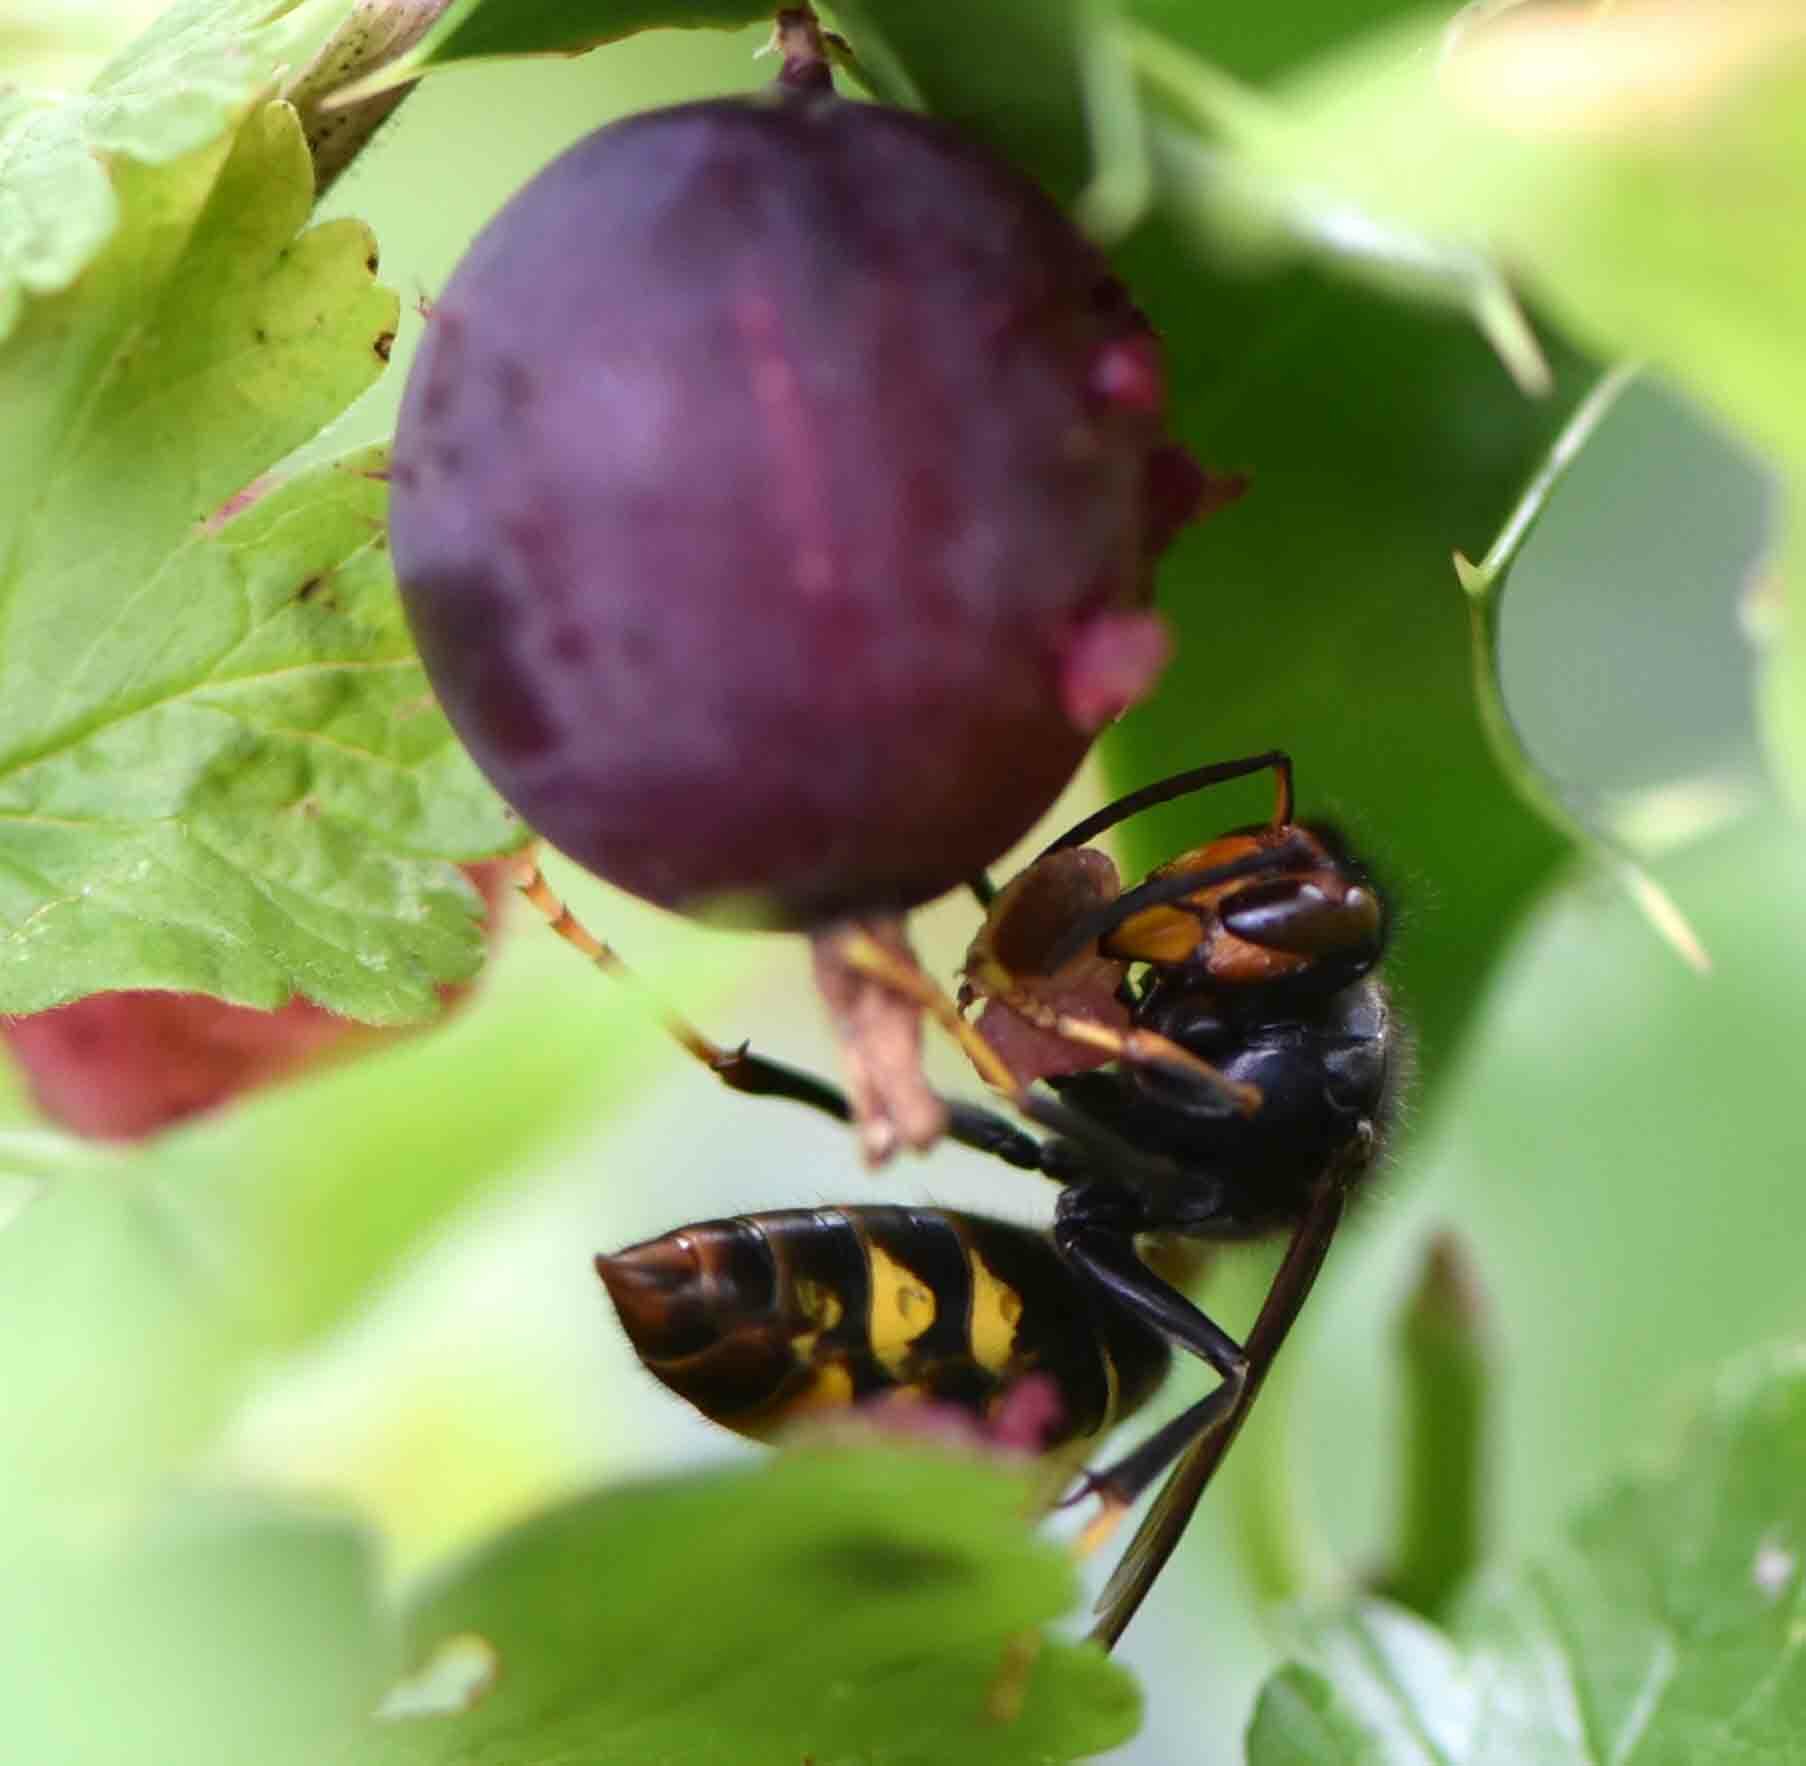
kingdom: Animalia
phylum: Arthropoda
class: Insecta
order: Hymenoptera
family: Vespidae
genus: Vespa
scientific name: Vespa velutina
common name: Asian hornet
